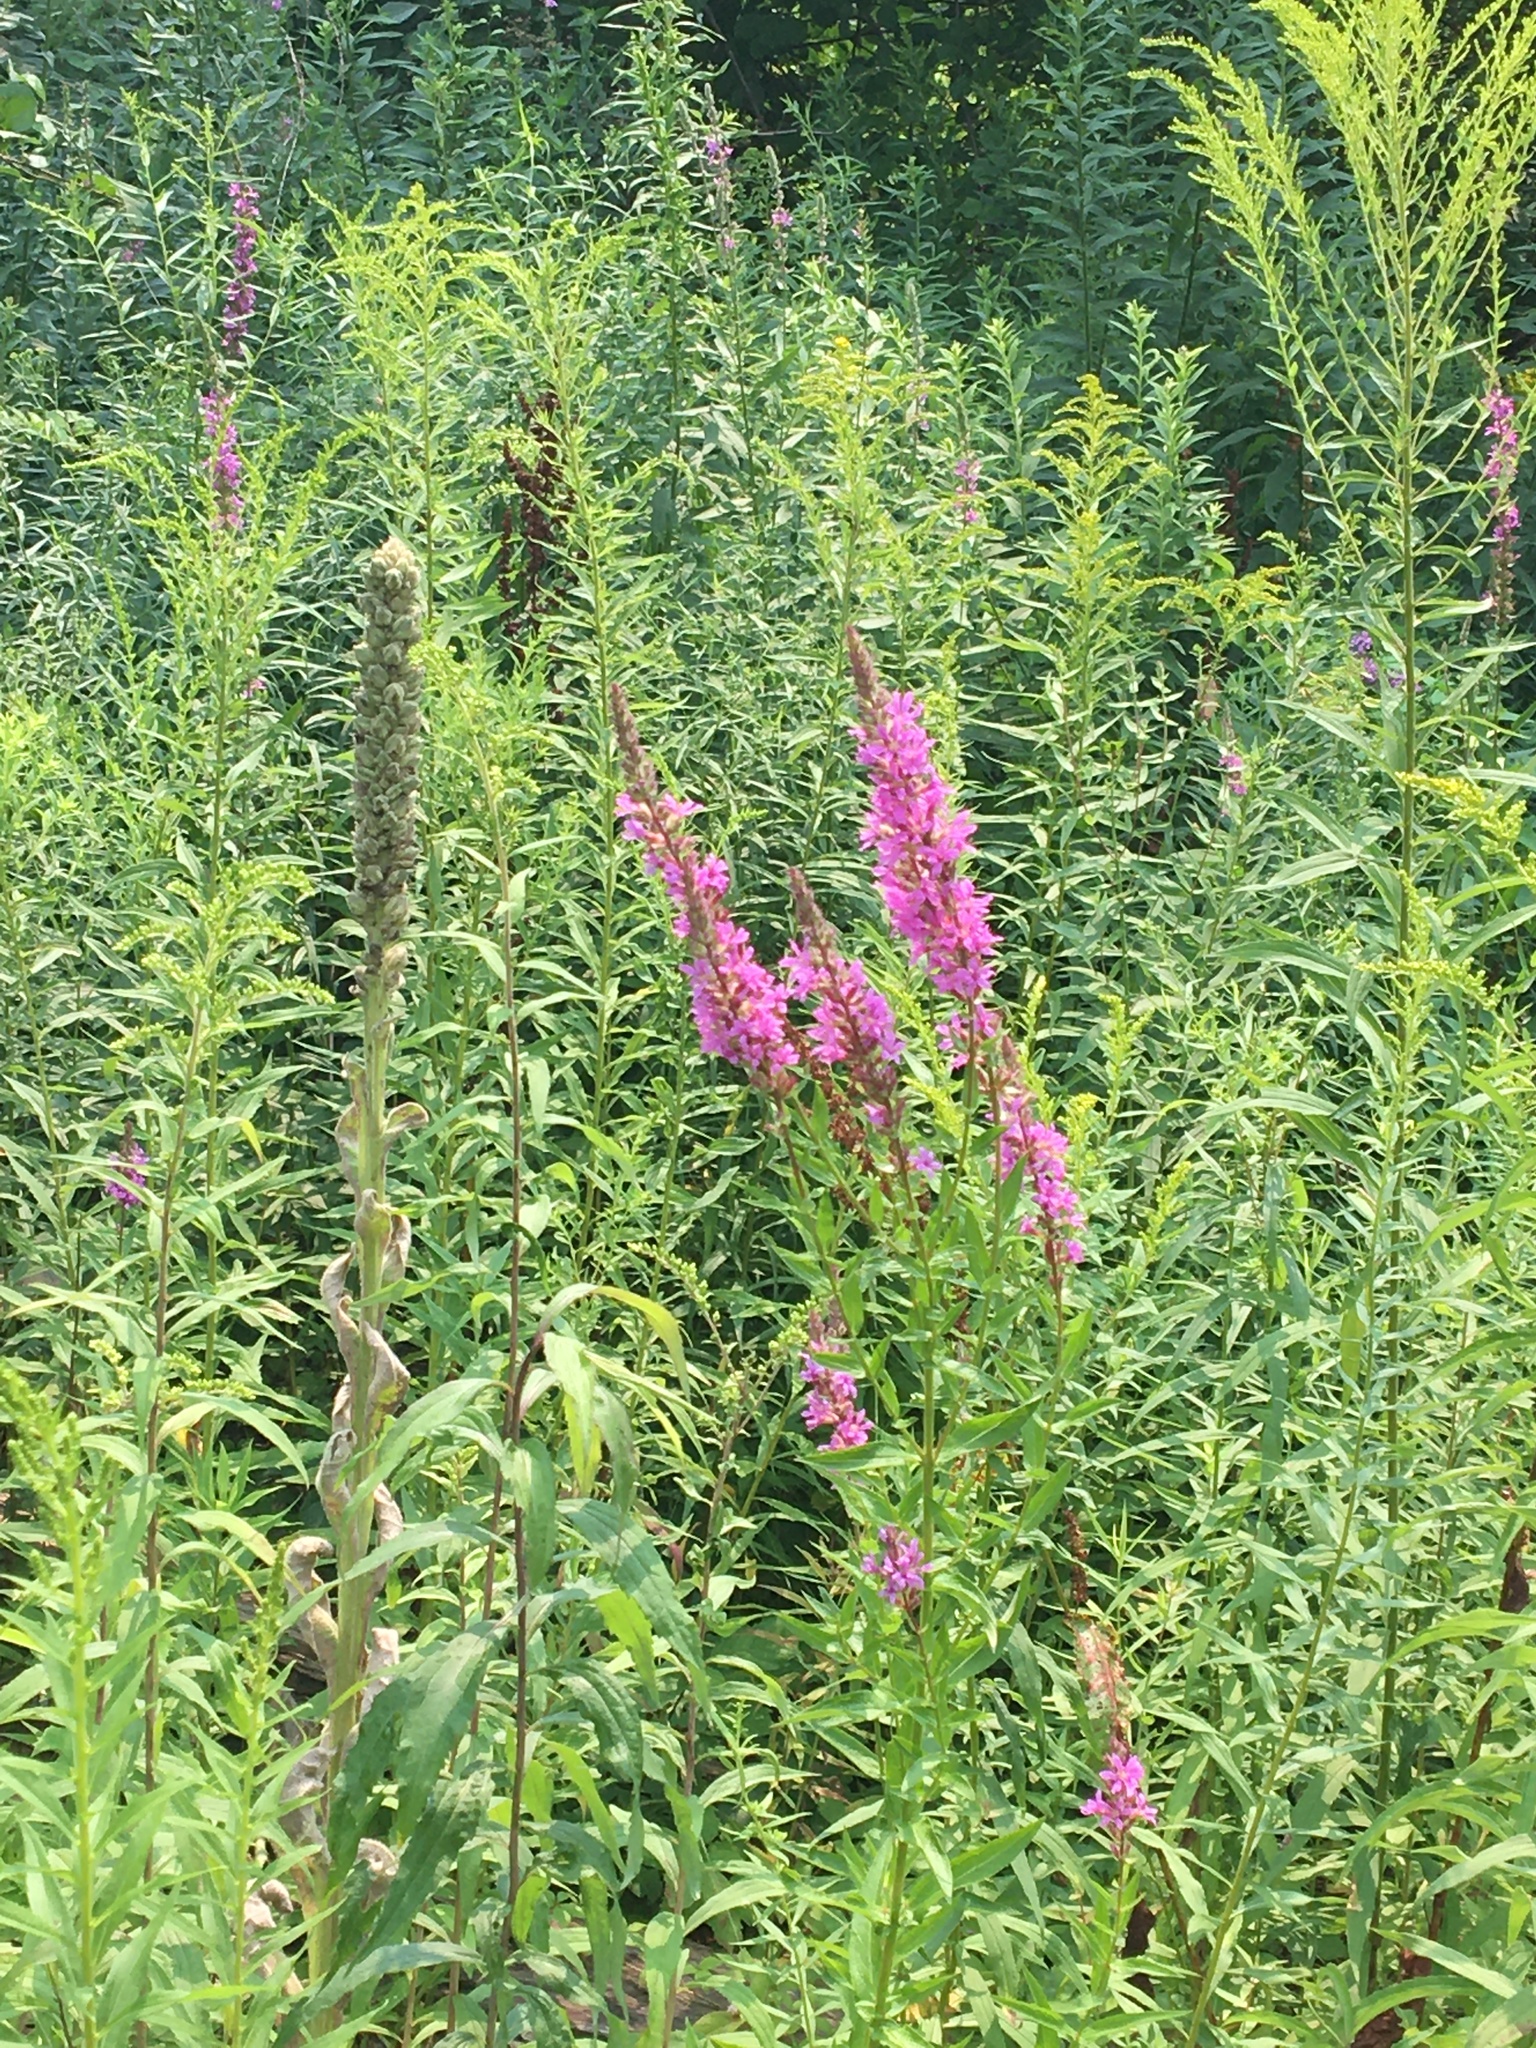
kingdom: Plantae
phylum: Tracheophyta
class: Magnoliopsida
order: Myrtales
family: Lythraceae
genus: Lythrum
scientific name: Lythrum salicaria
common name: Purple loosestrife
